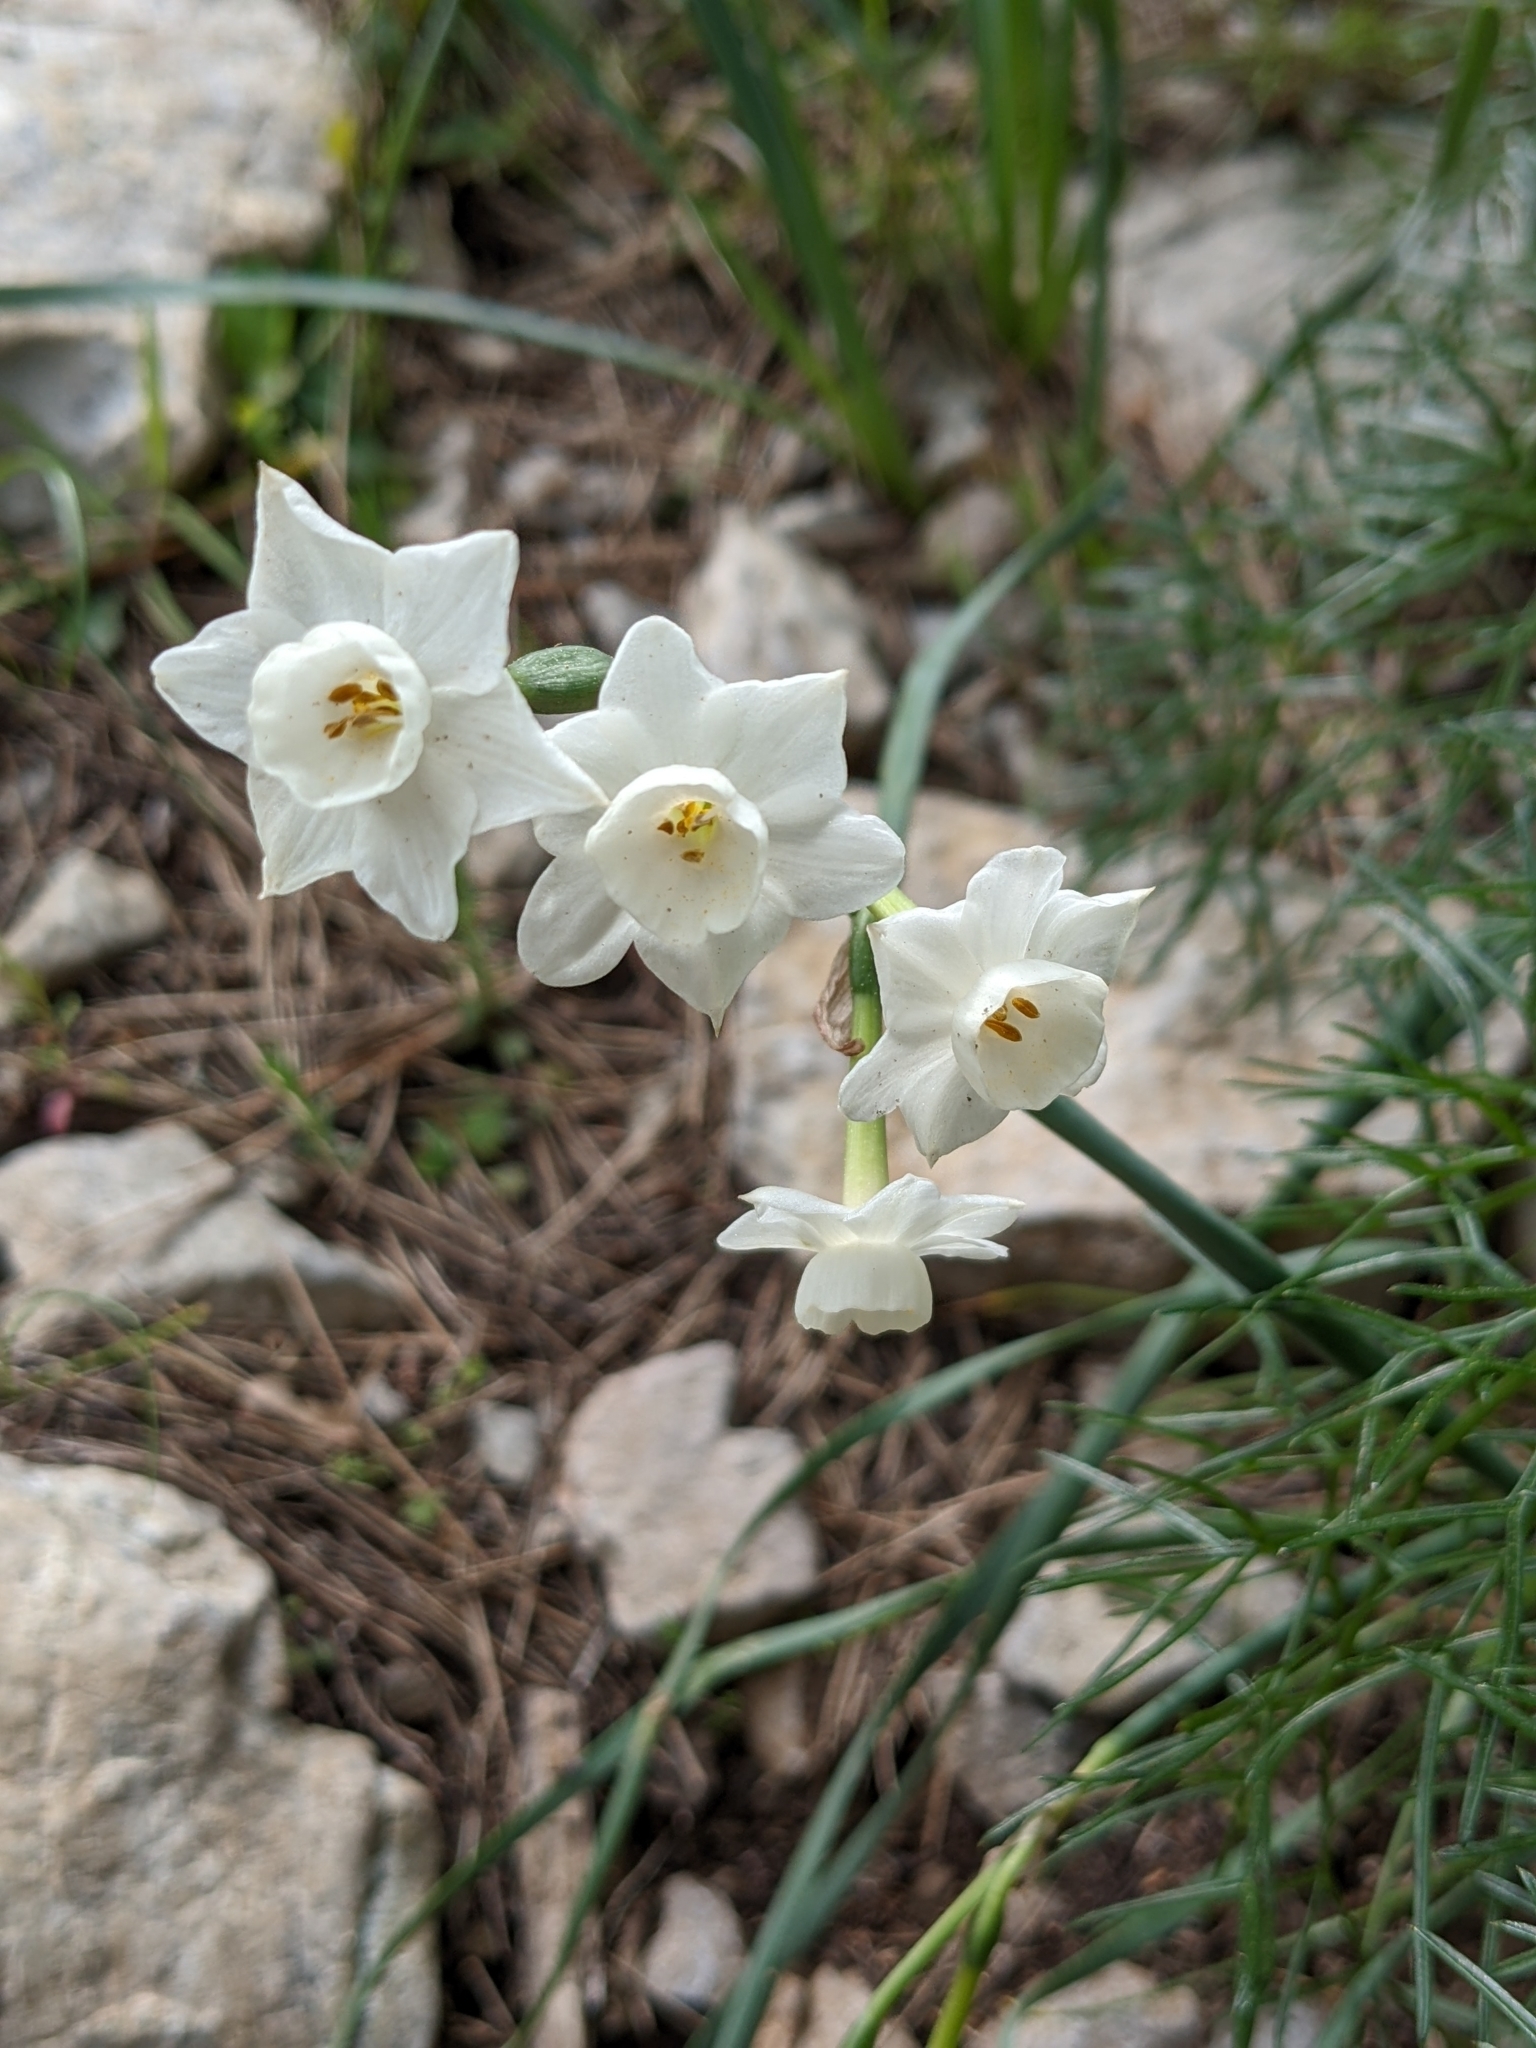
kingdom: Plantae
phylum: Tracheophyta
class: Liliopsida
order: Asparagales
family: Amaryllidaceae
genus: Narcissus
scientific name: Narcissus dubius
